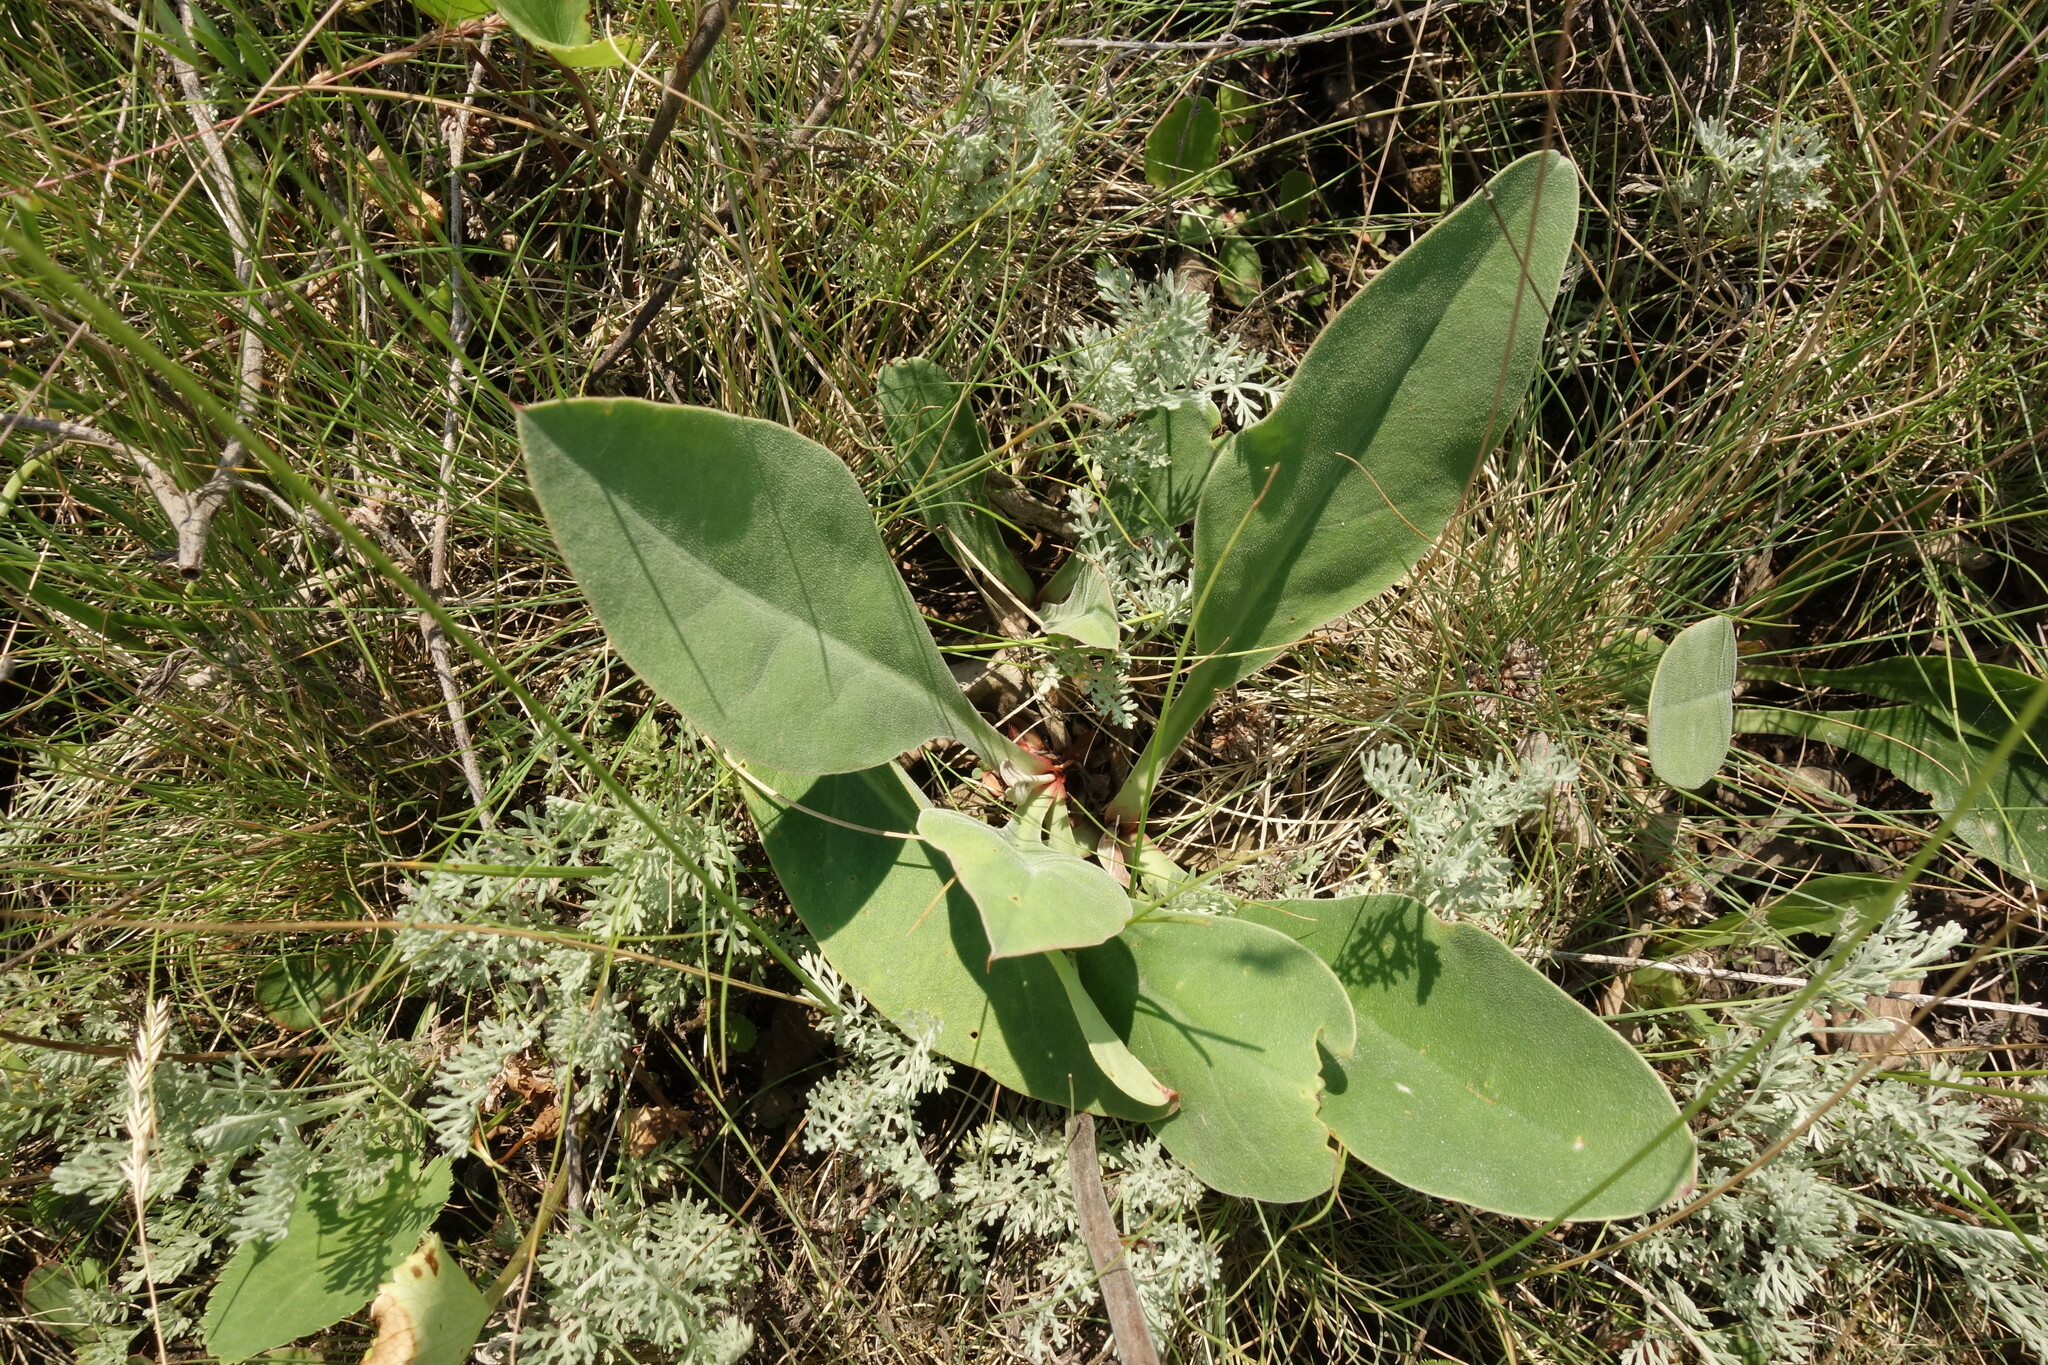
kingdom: Plantae
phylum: Tracheophyta
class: Magnoliopsida
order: Caryophyllales
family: Plumbaginaceae
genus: Limonium
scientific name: Limonium tomentellum
